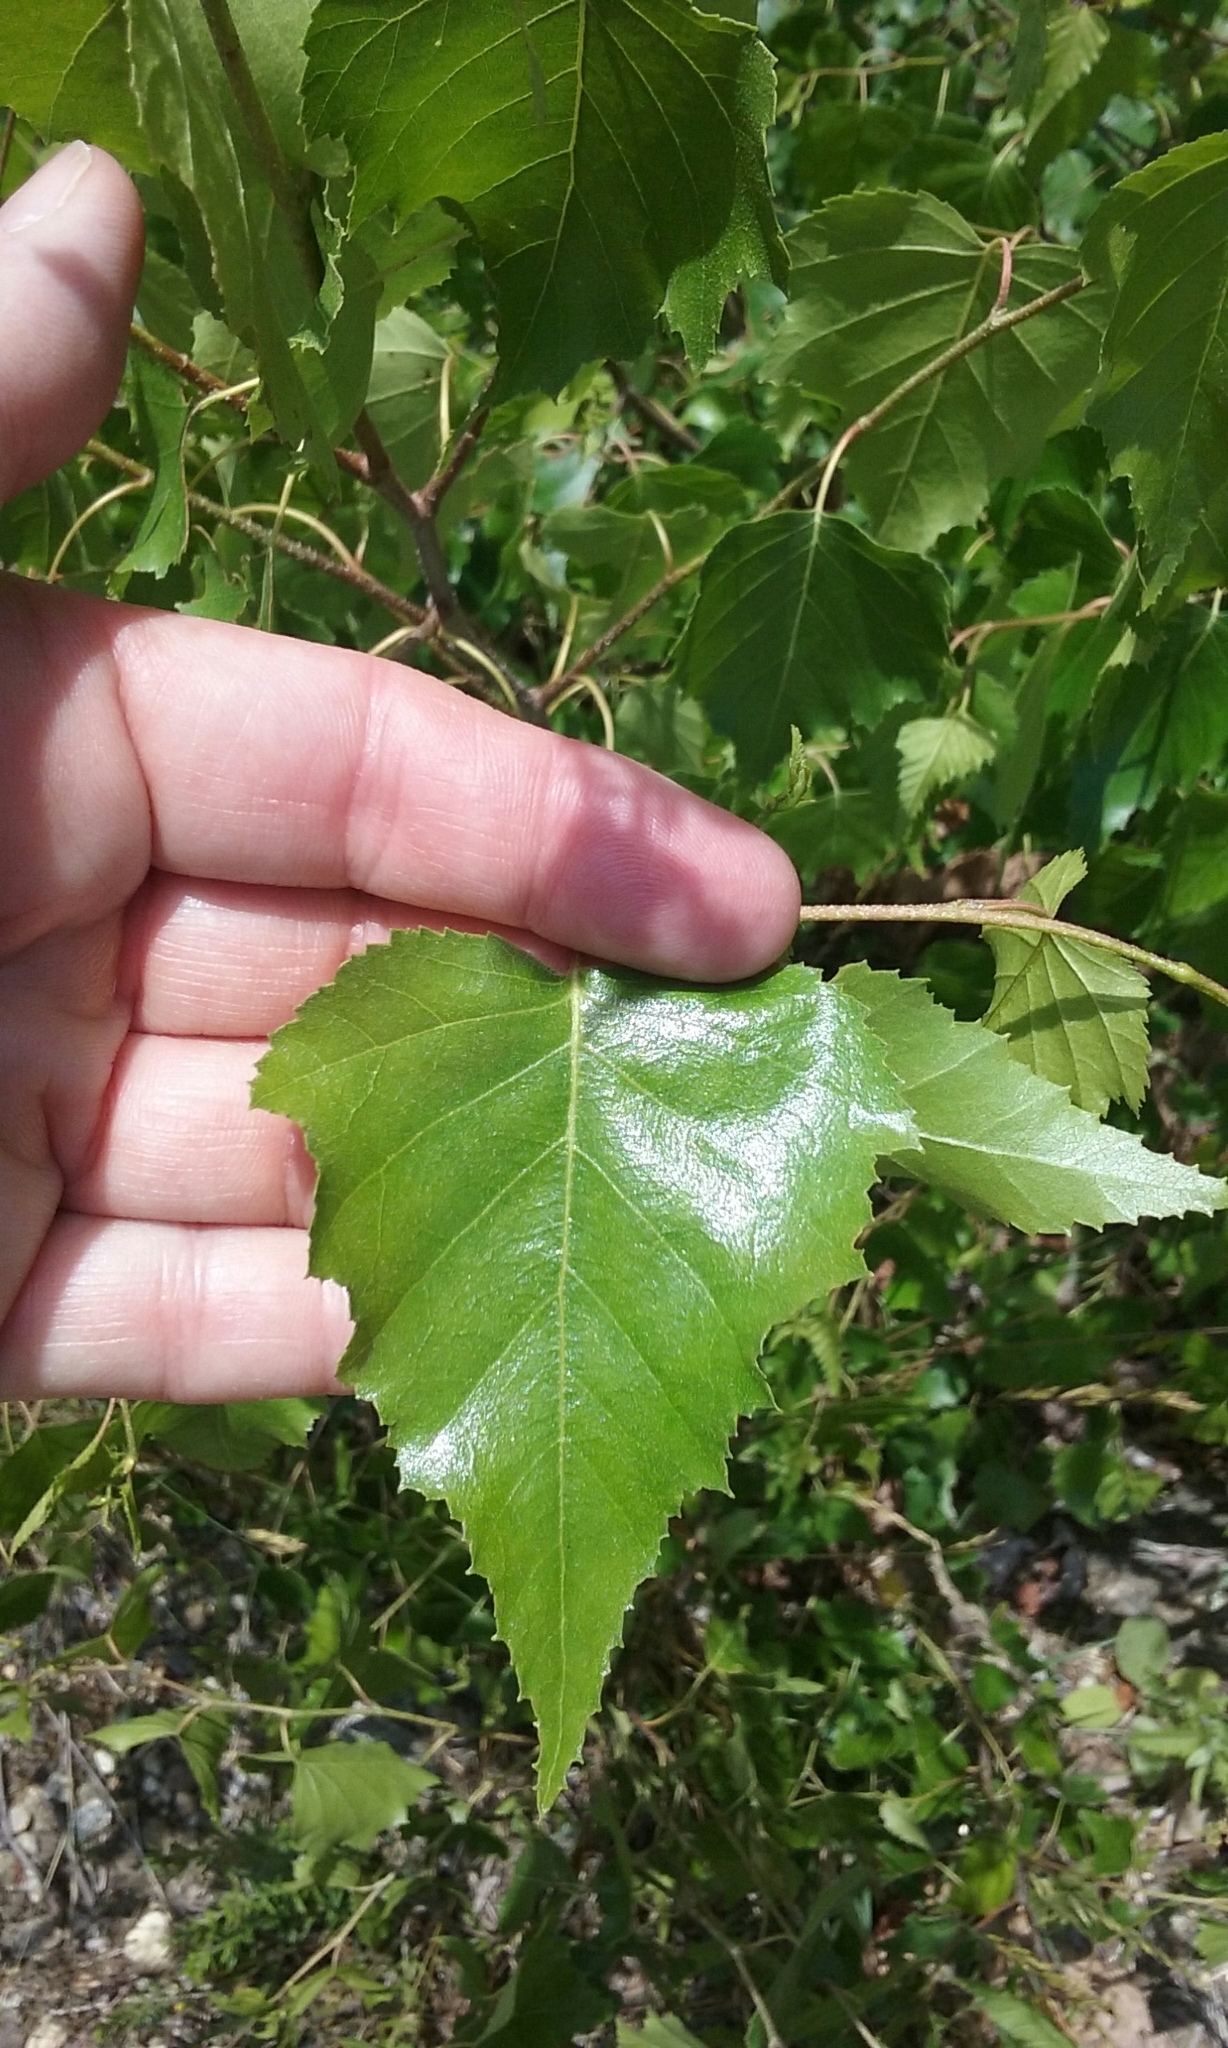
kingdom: Plantae
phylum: Tracheophyta
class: Magnoliopsida
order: Fagales
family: Betulaceae
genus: Betula
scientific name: Betula populifolia
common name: Fire birch
